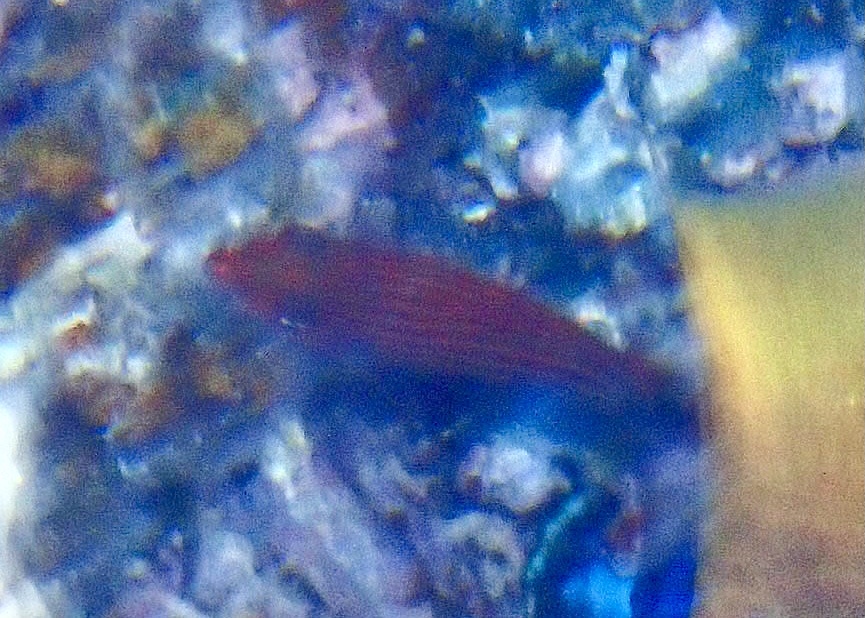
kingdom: Animalia
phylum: Chordata
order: Perciformes
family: Labridae
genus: Pseudocheilinus
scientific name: Pseudocheilinus hexataenia
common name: Sixline wrasse
